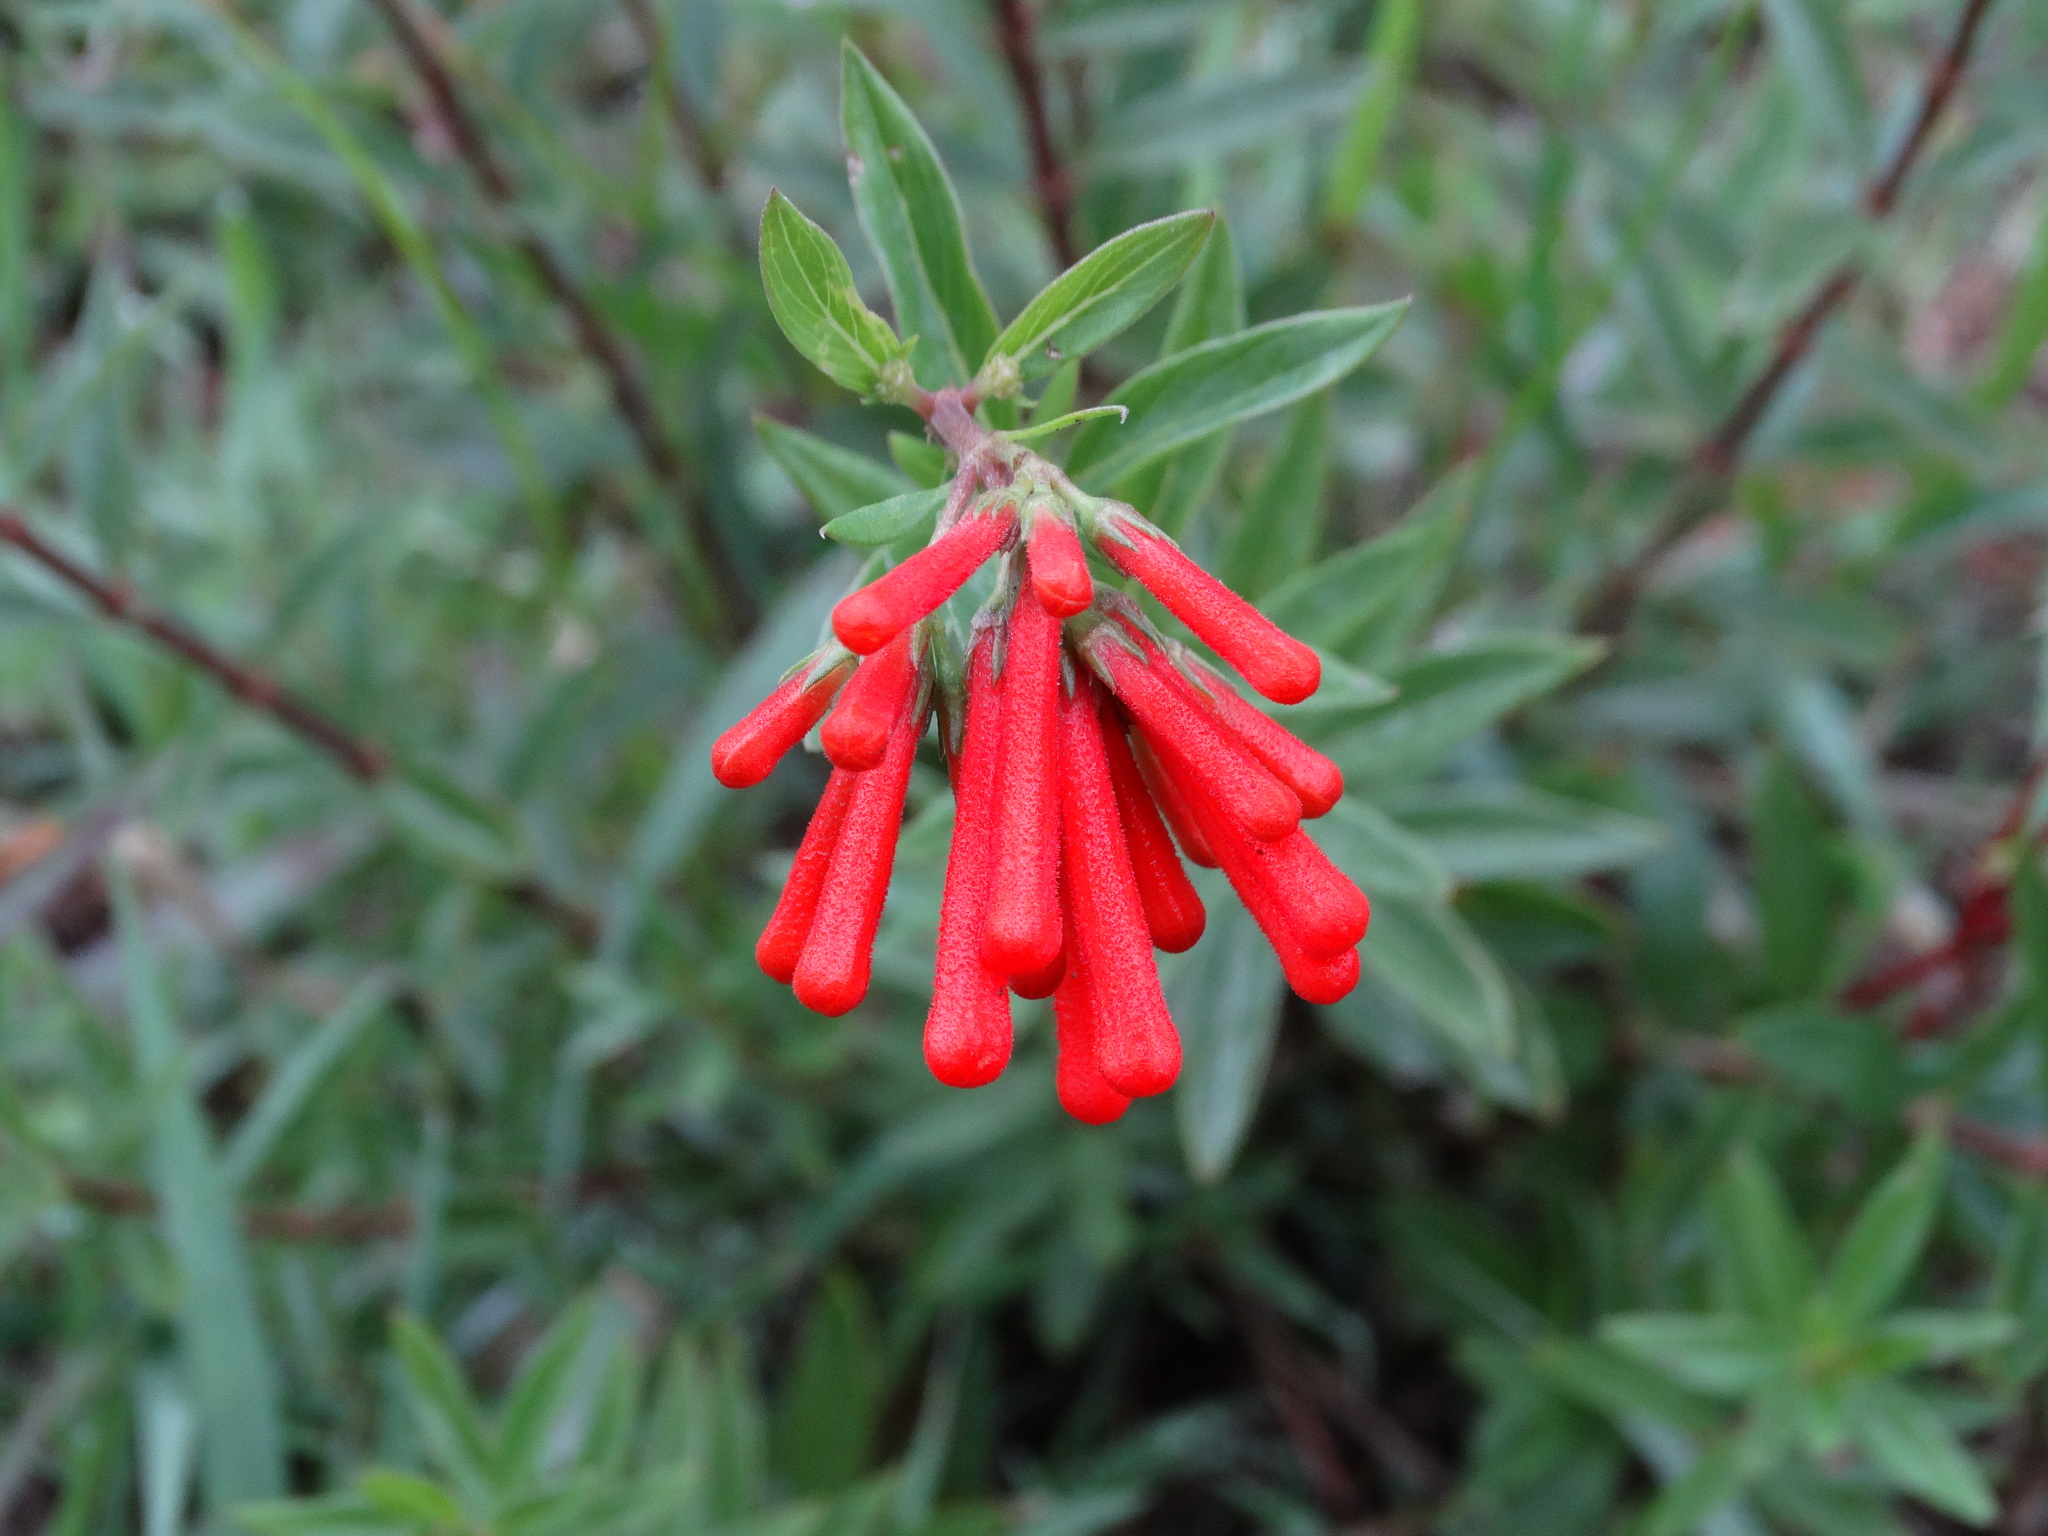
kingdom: Plantae
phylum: Tracheophyta
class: Magnoliopsida
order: Gentianales
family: Rubiaceae
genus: Bouvardia
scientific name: Bouvardia ternifolia
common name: Scarlet bouvardia
